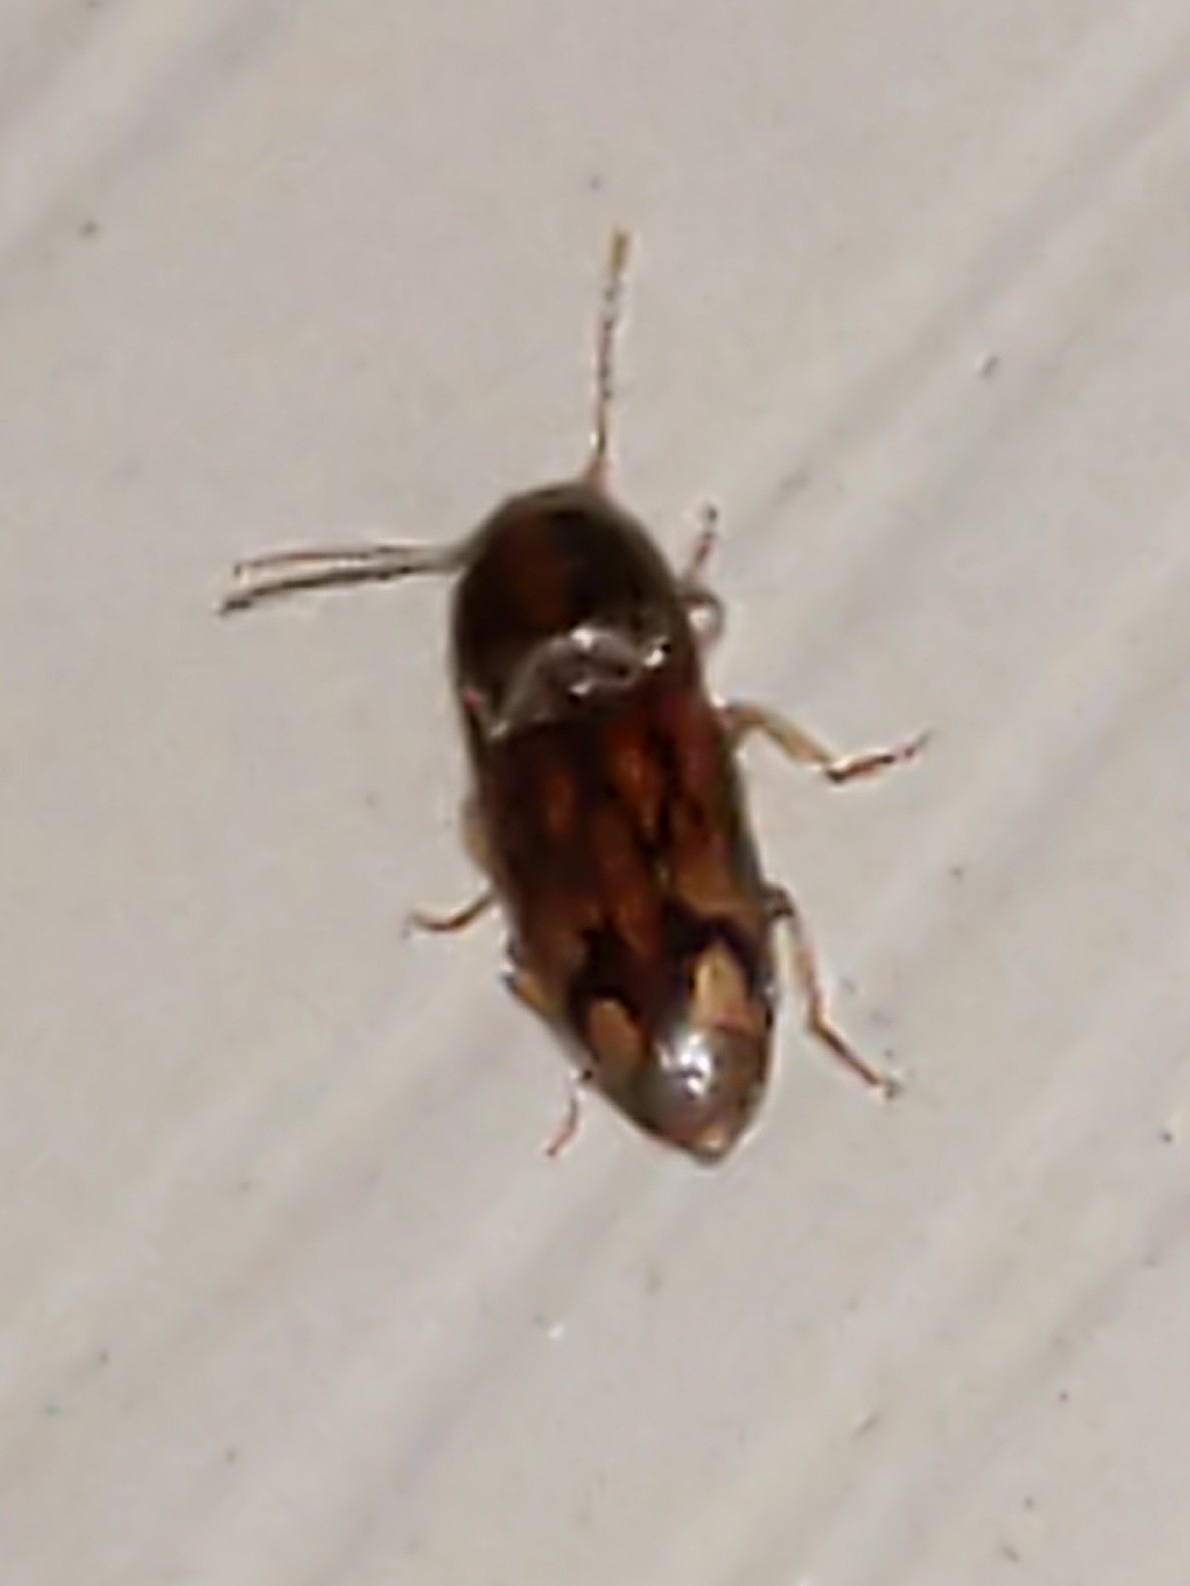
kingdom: Animalia
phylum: Arthropoda
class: Insecta
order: Coleoptera
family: Elateridae
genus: Monocrepidius
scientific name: Monocrepidius bellus
